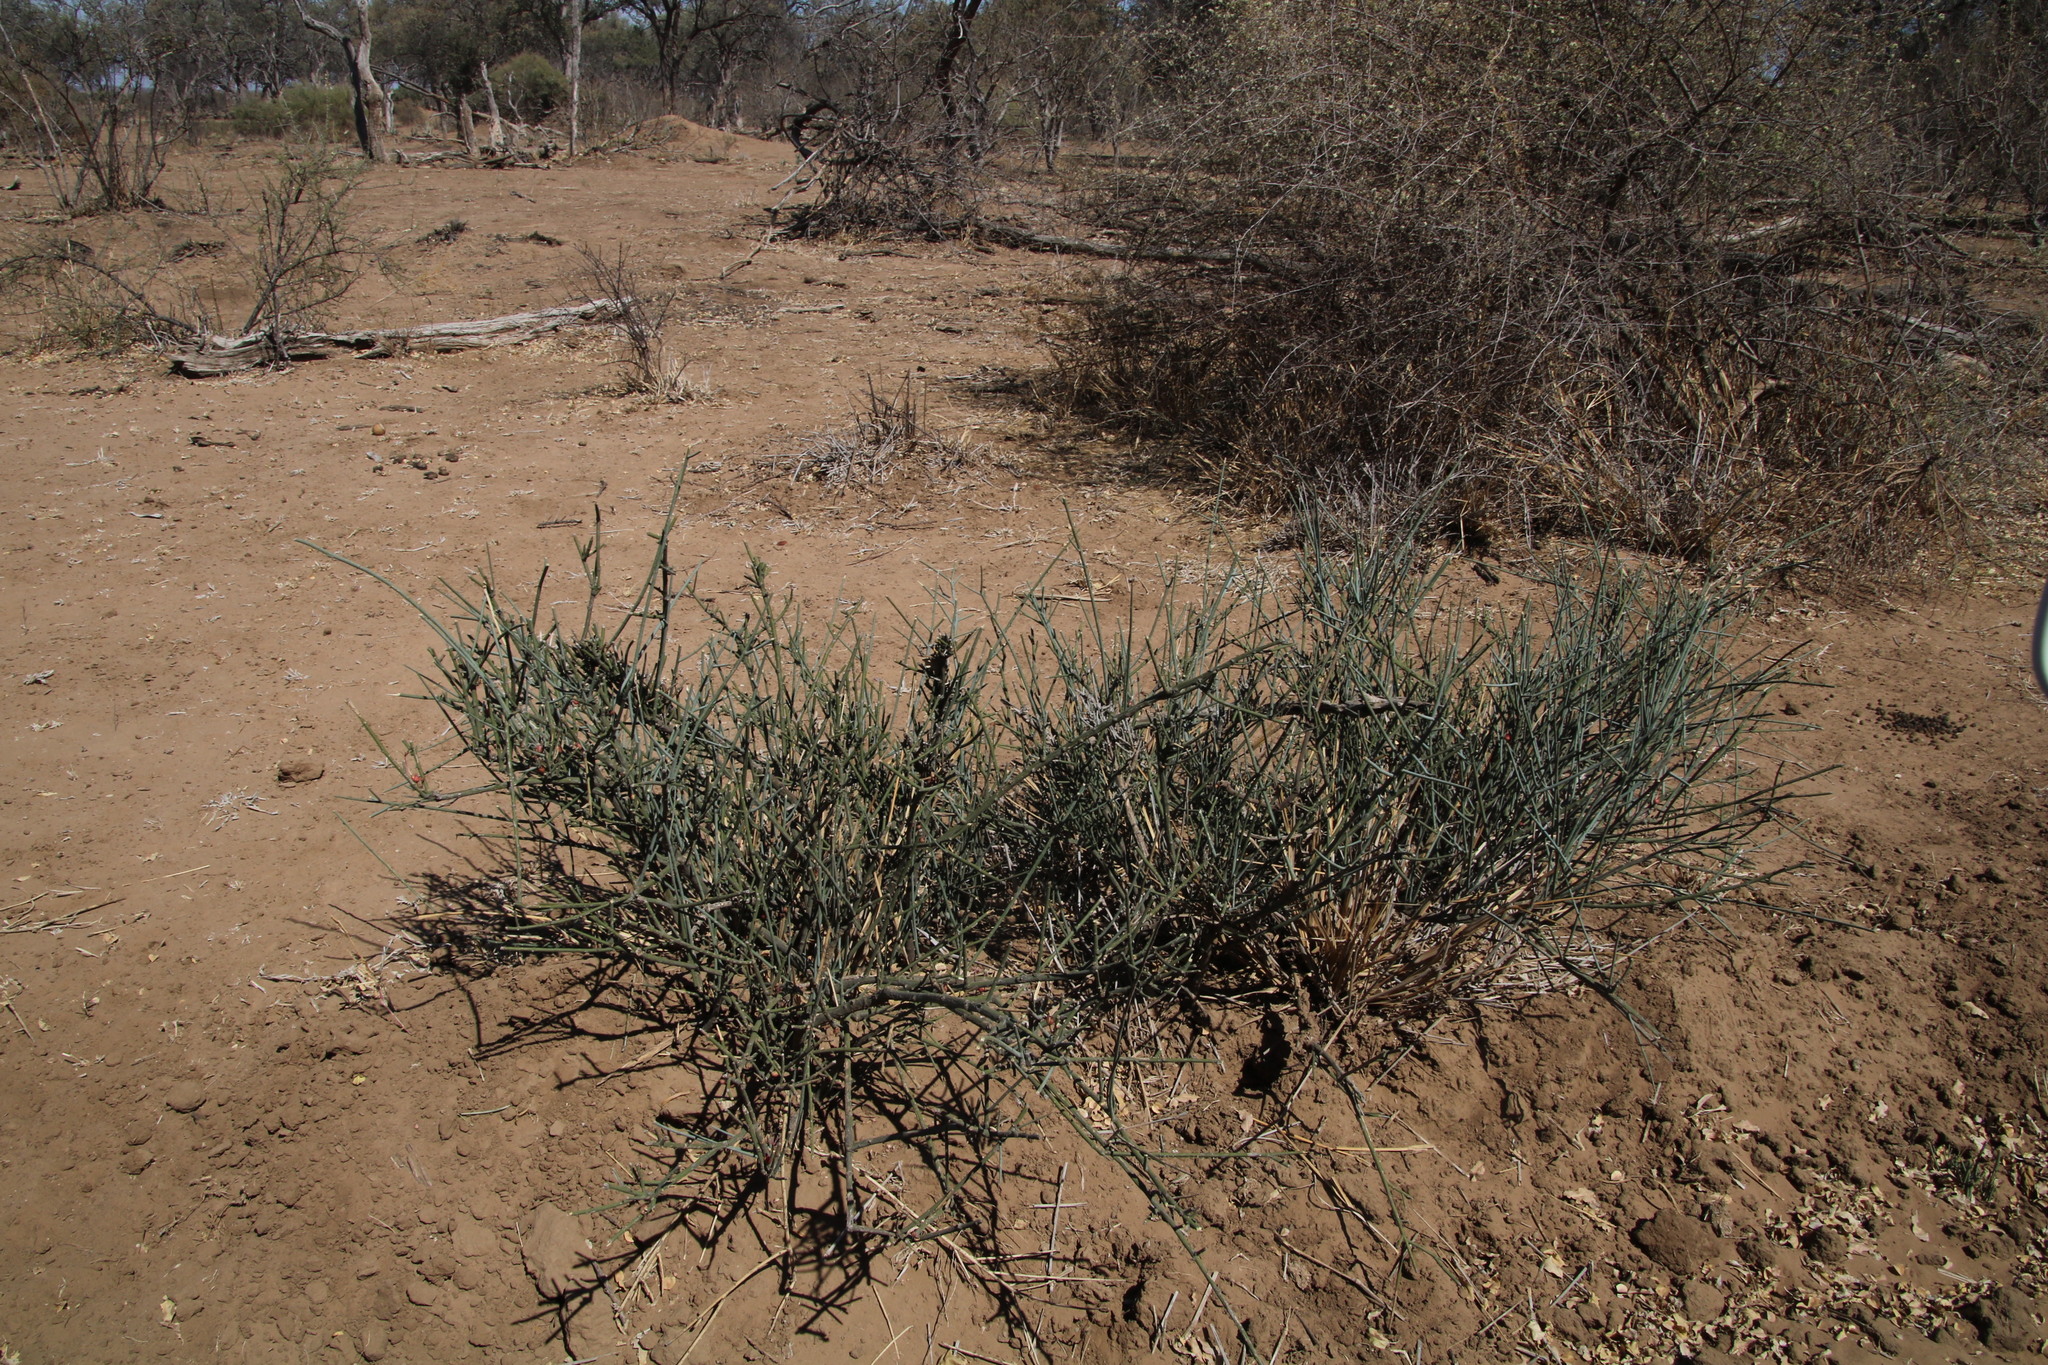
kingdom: Plantae
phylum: Tracheophyta
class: Magnoliopsida
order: Brassicales
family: Capparaceae
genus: Cadaba
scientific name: Cadaba aphylla
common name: Black storm
